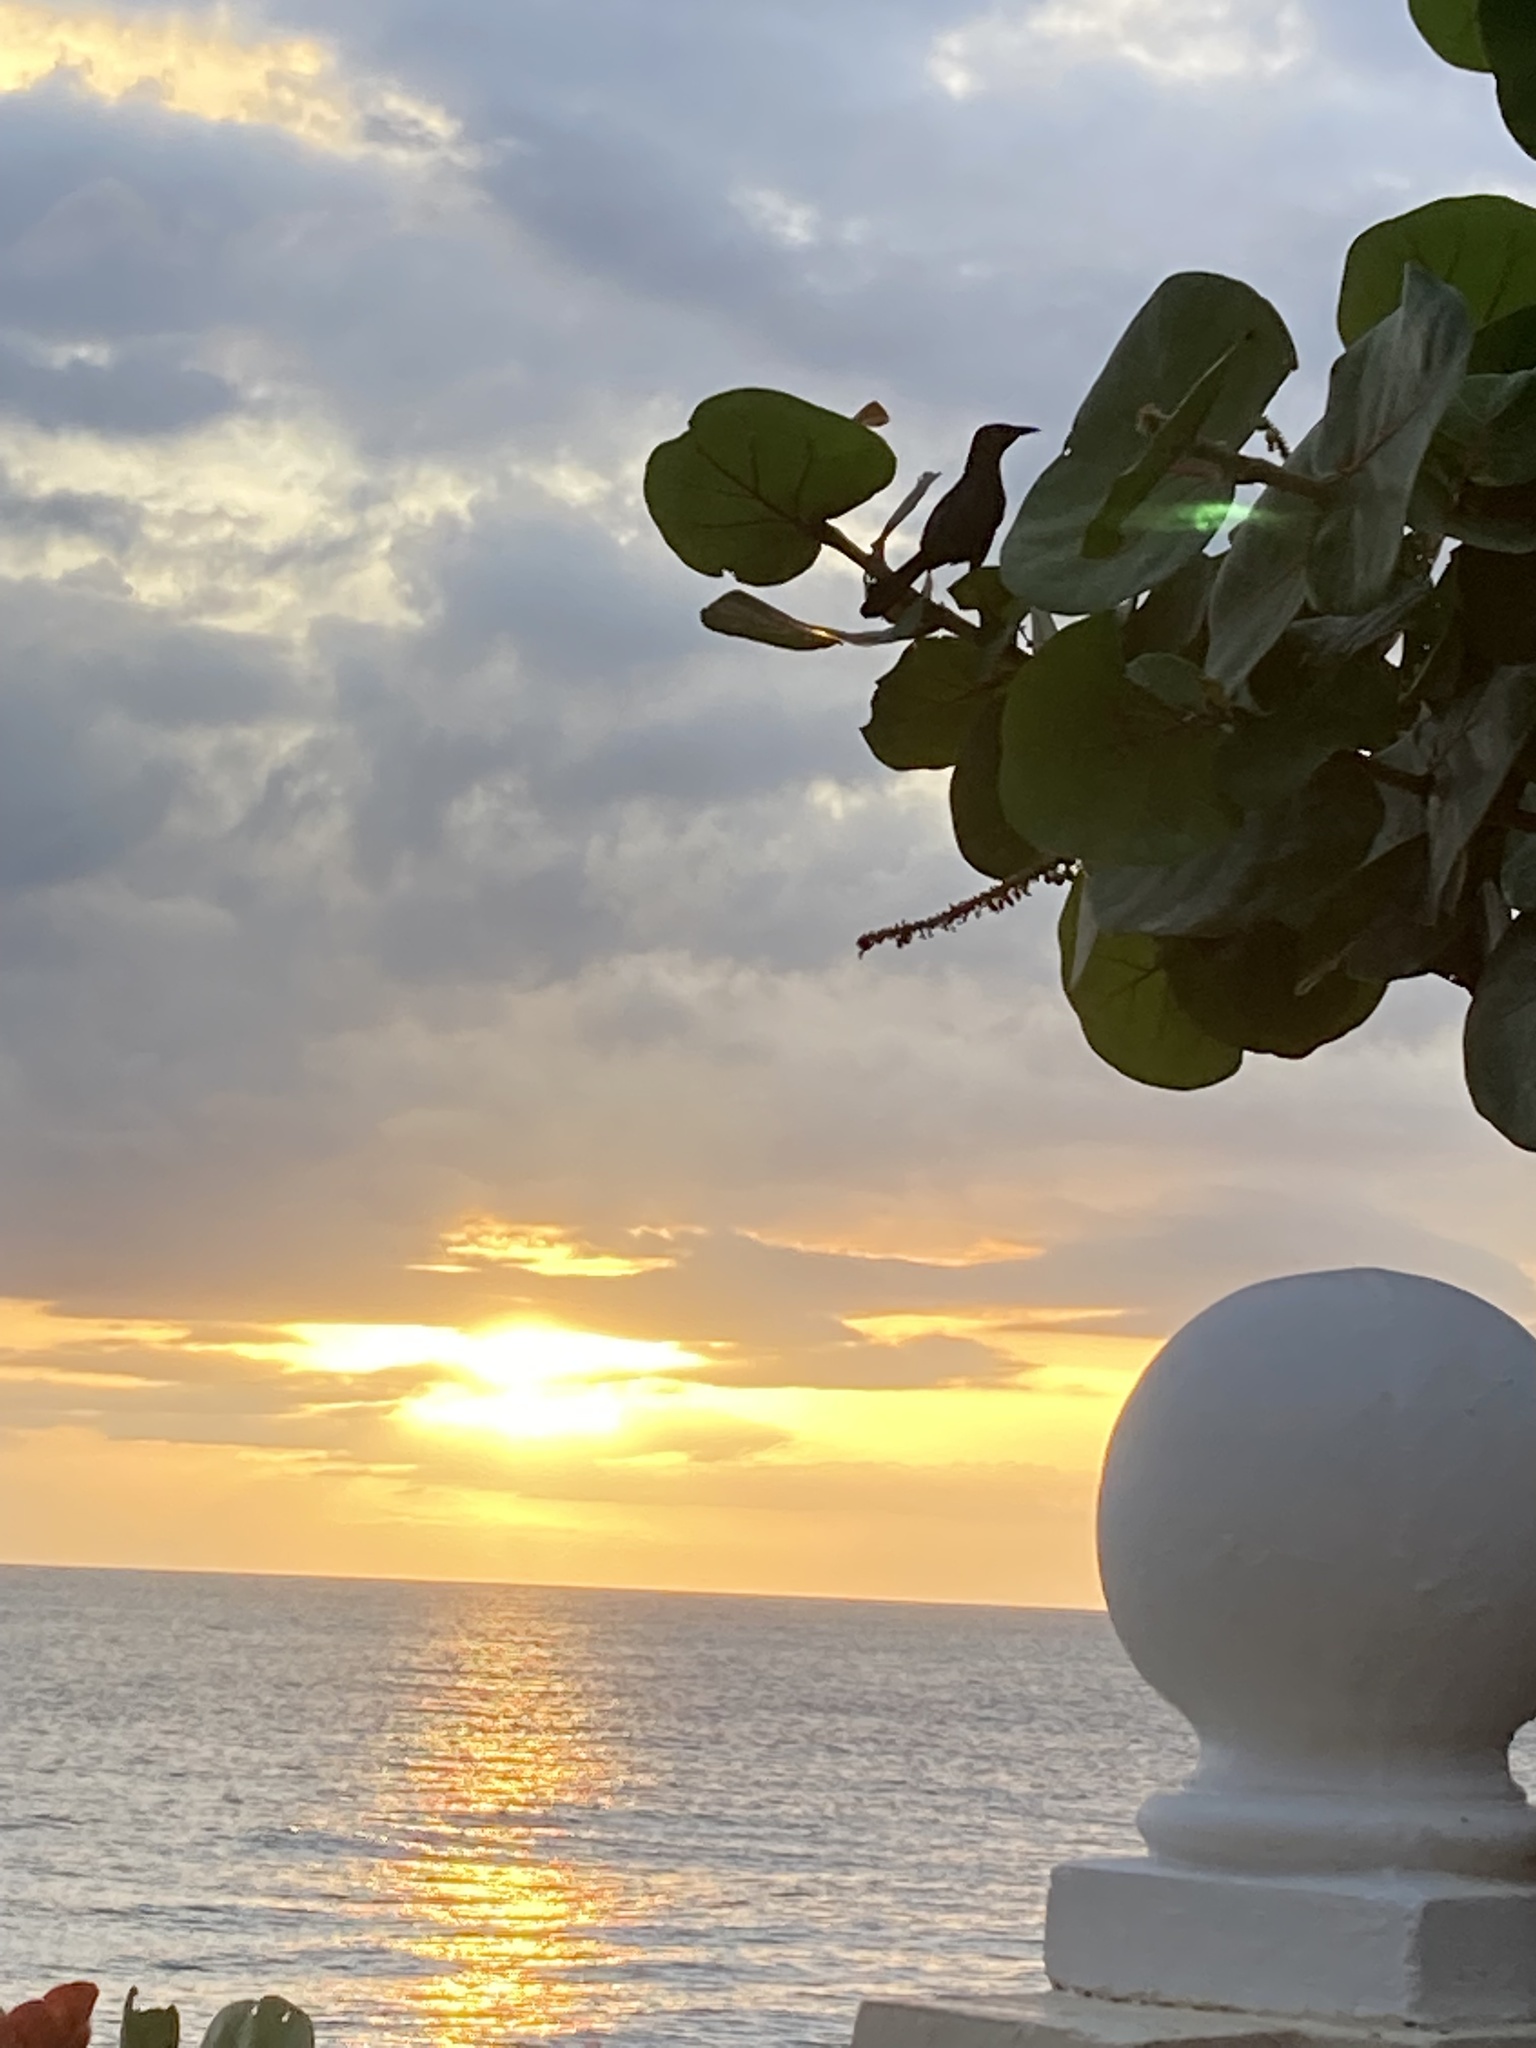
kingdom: Animalia
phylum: Chordata
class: Aves
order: Passeriformes
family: Icteridae
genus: Quiscalus
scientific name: Quiscalus niger
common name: Greater antillean grackle
